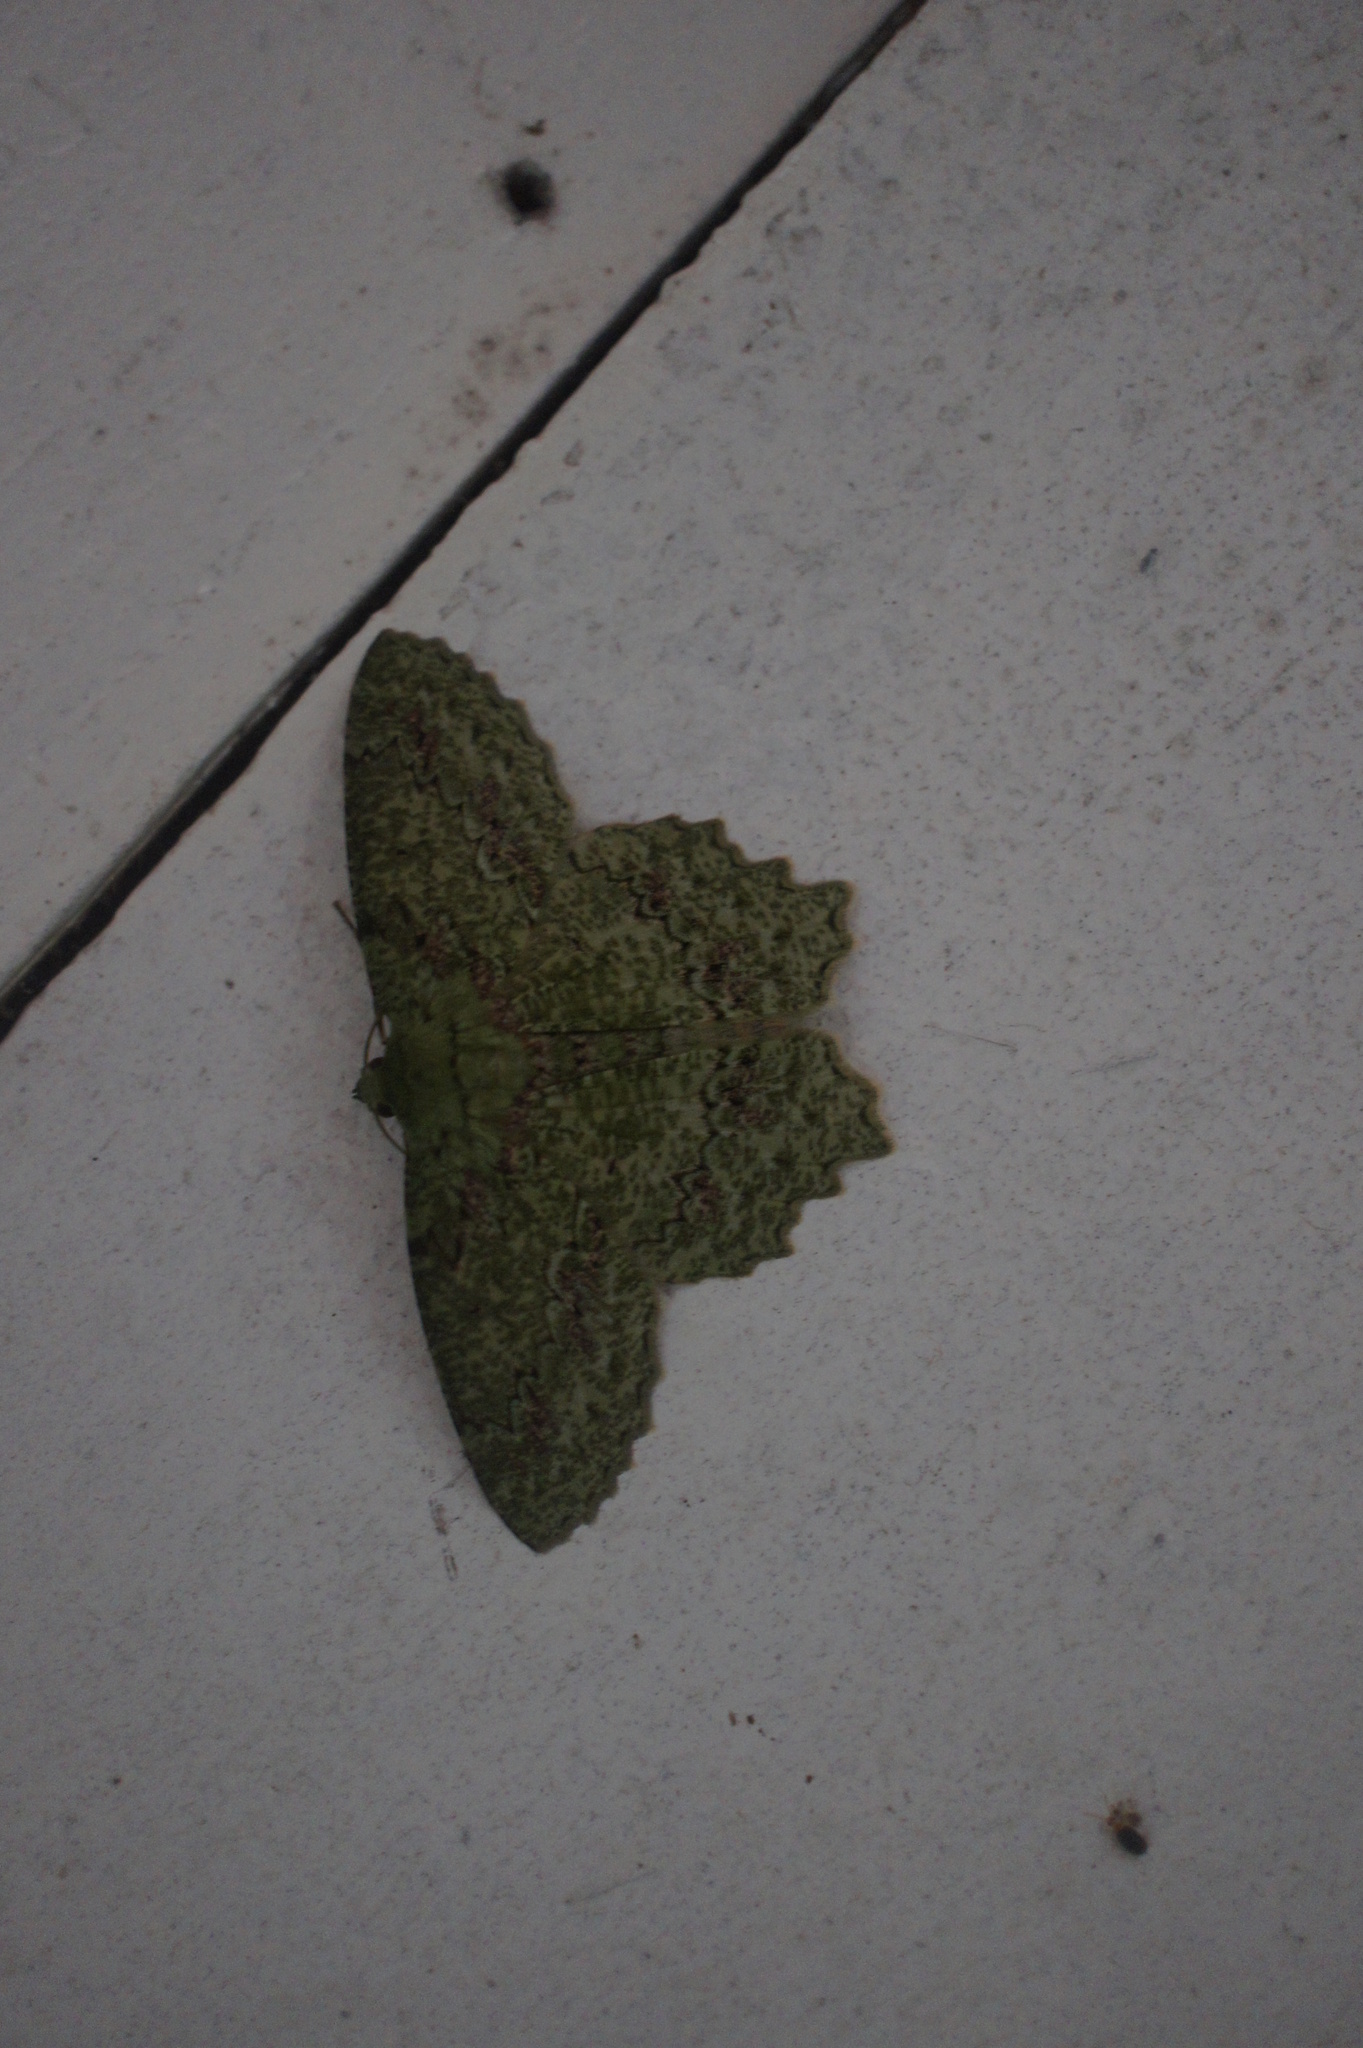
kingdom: Animalia
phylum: Arthropoda
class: Insecta
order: Lepidoptera
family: Geometridae
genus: Herochroma
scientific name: Herochroma urapteraria
